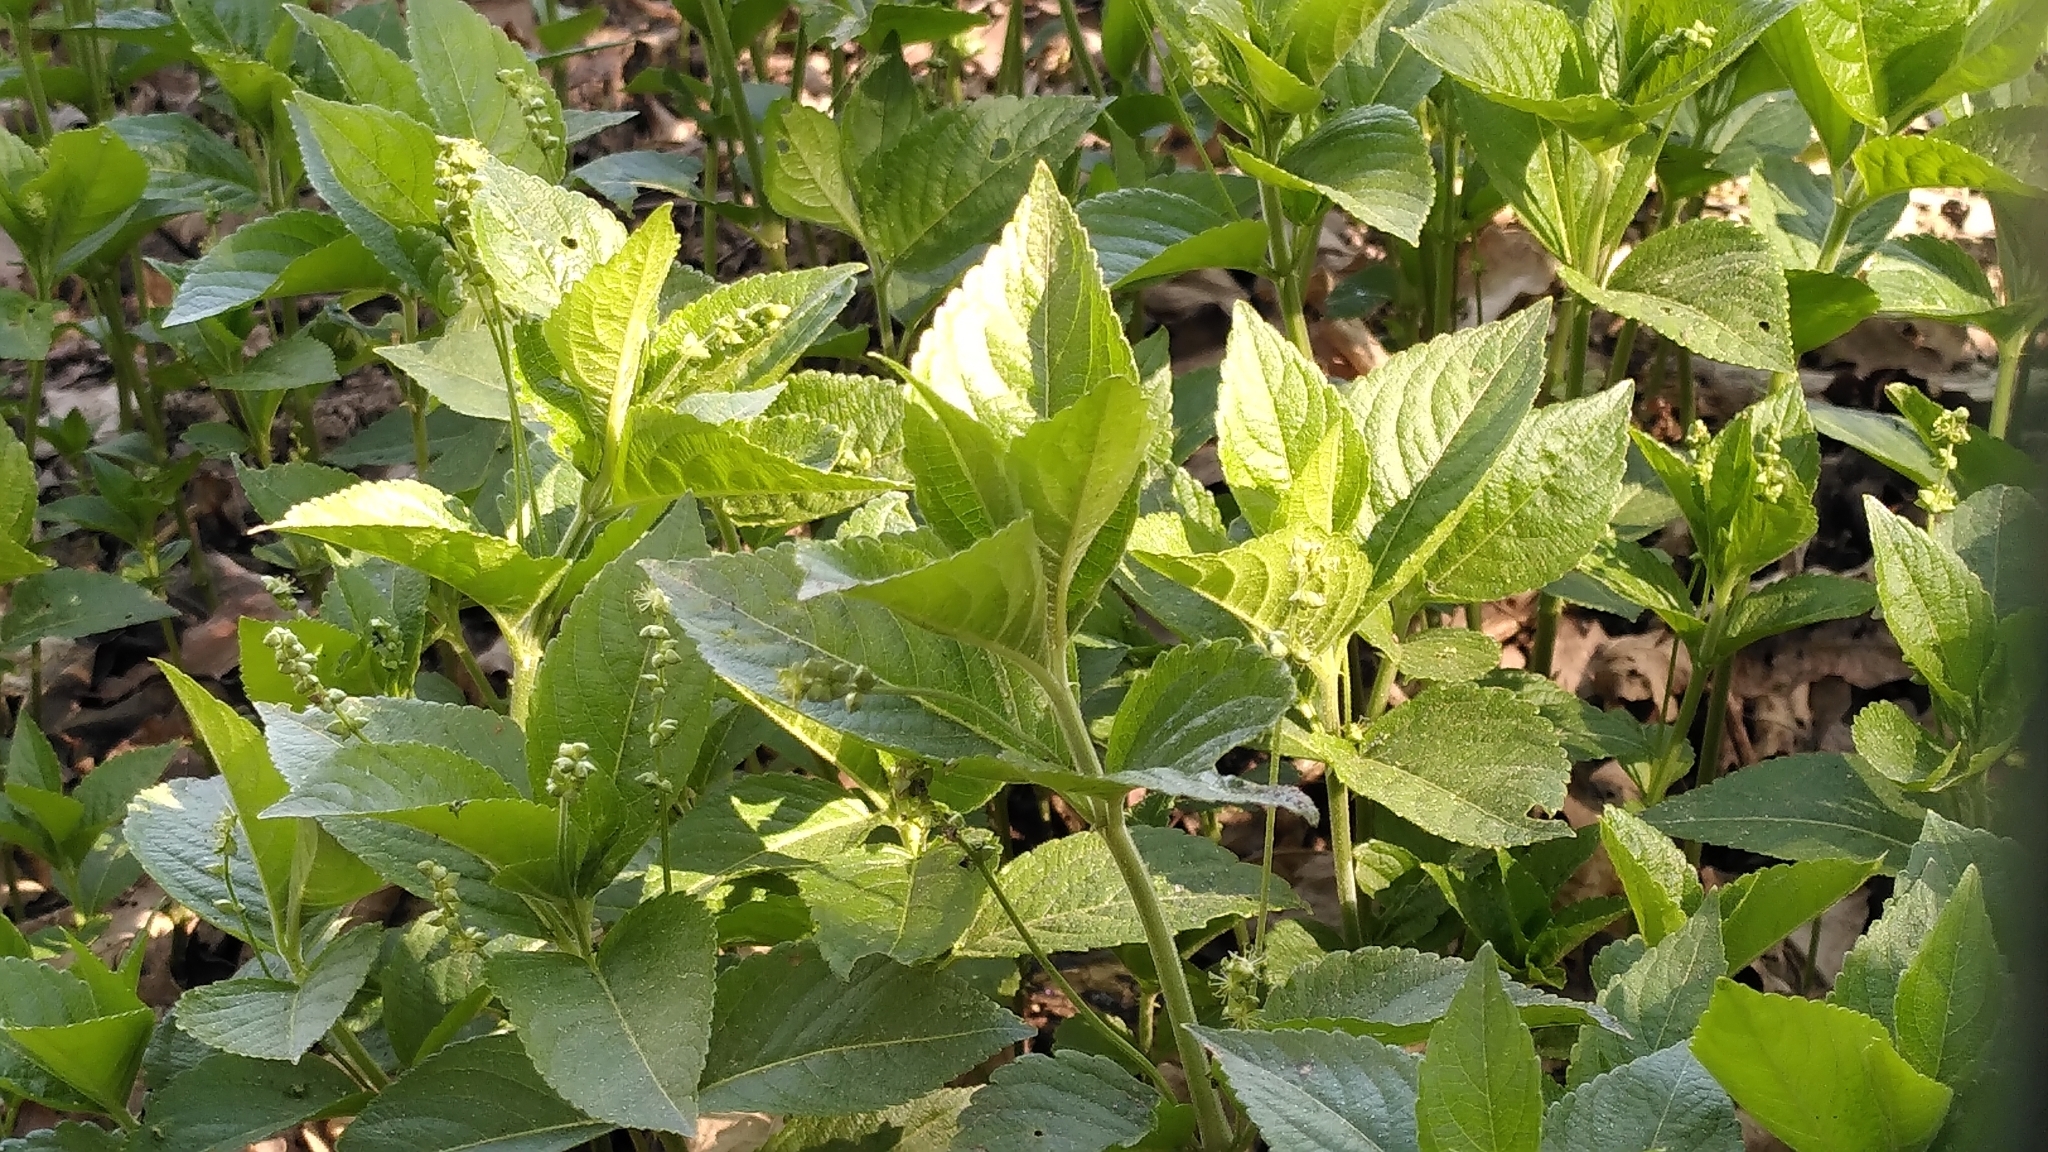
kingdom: Plantae
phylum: Tracheophyta
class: Magnoliopsida
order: Malpighiales
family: Euphorbiaceae
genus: Mercurialis
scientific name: Mercurialis perennis
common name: Dog mercury
